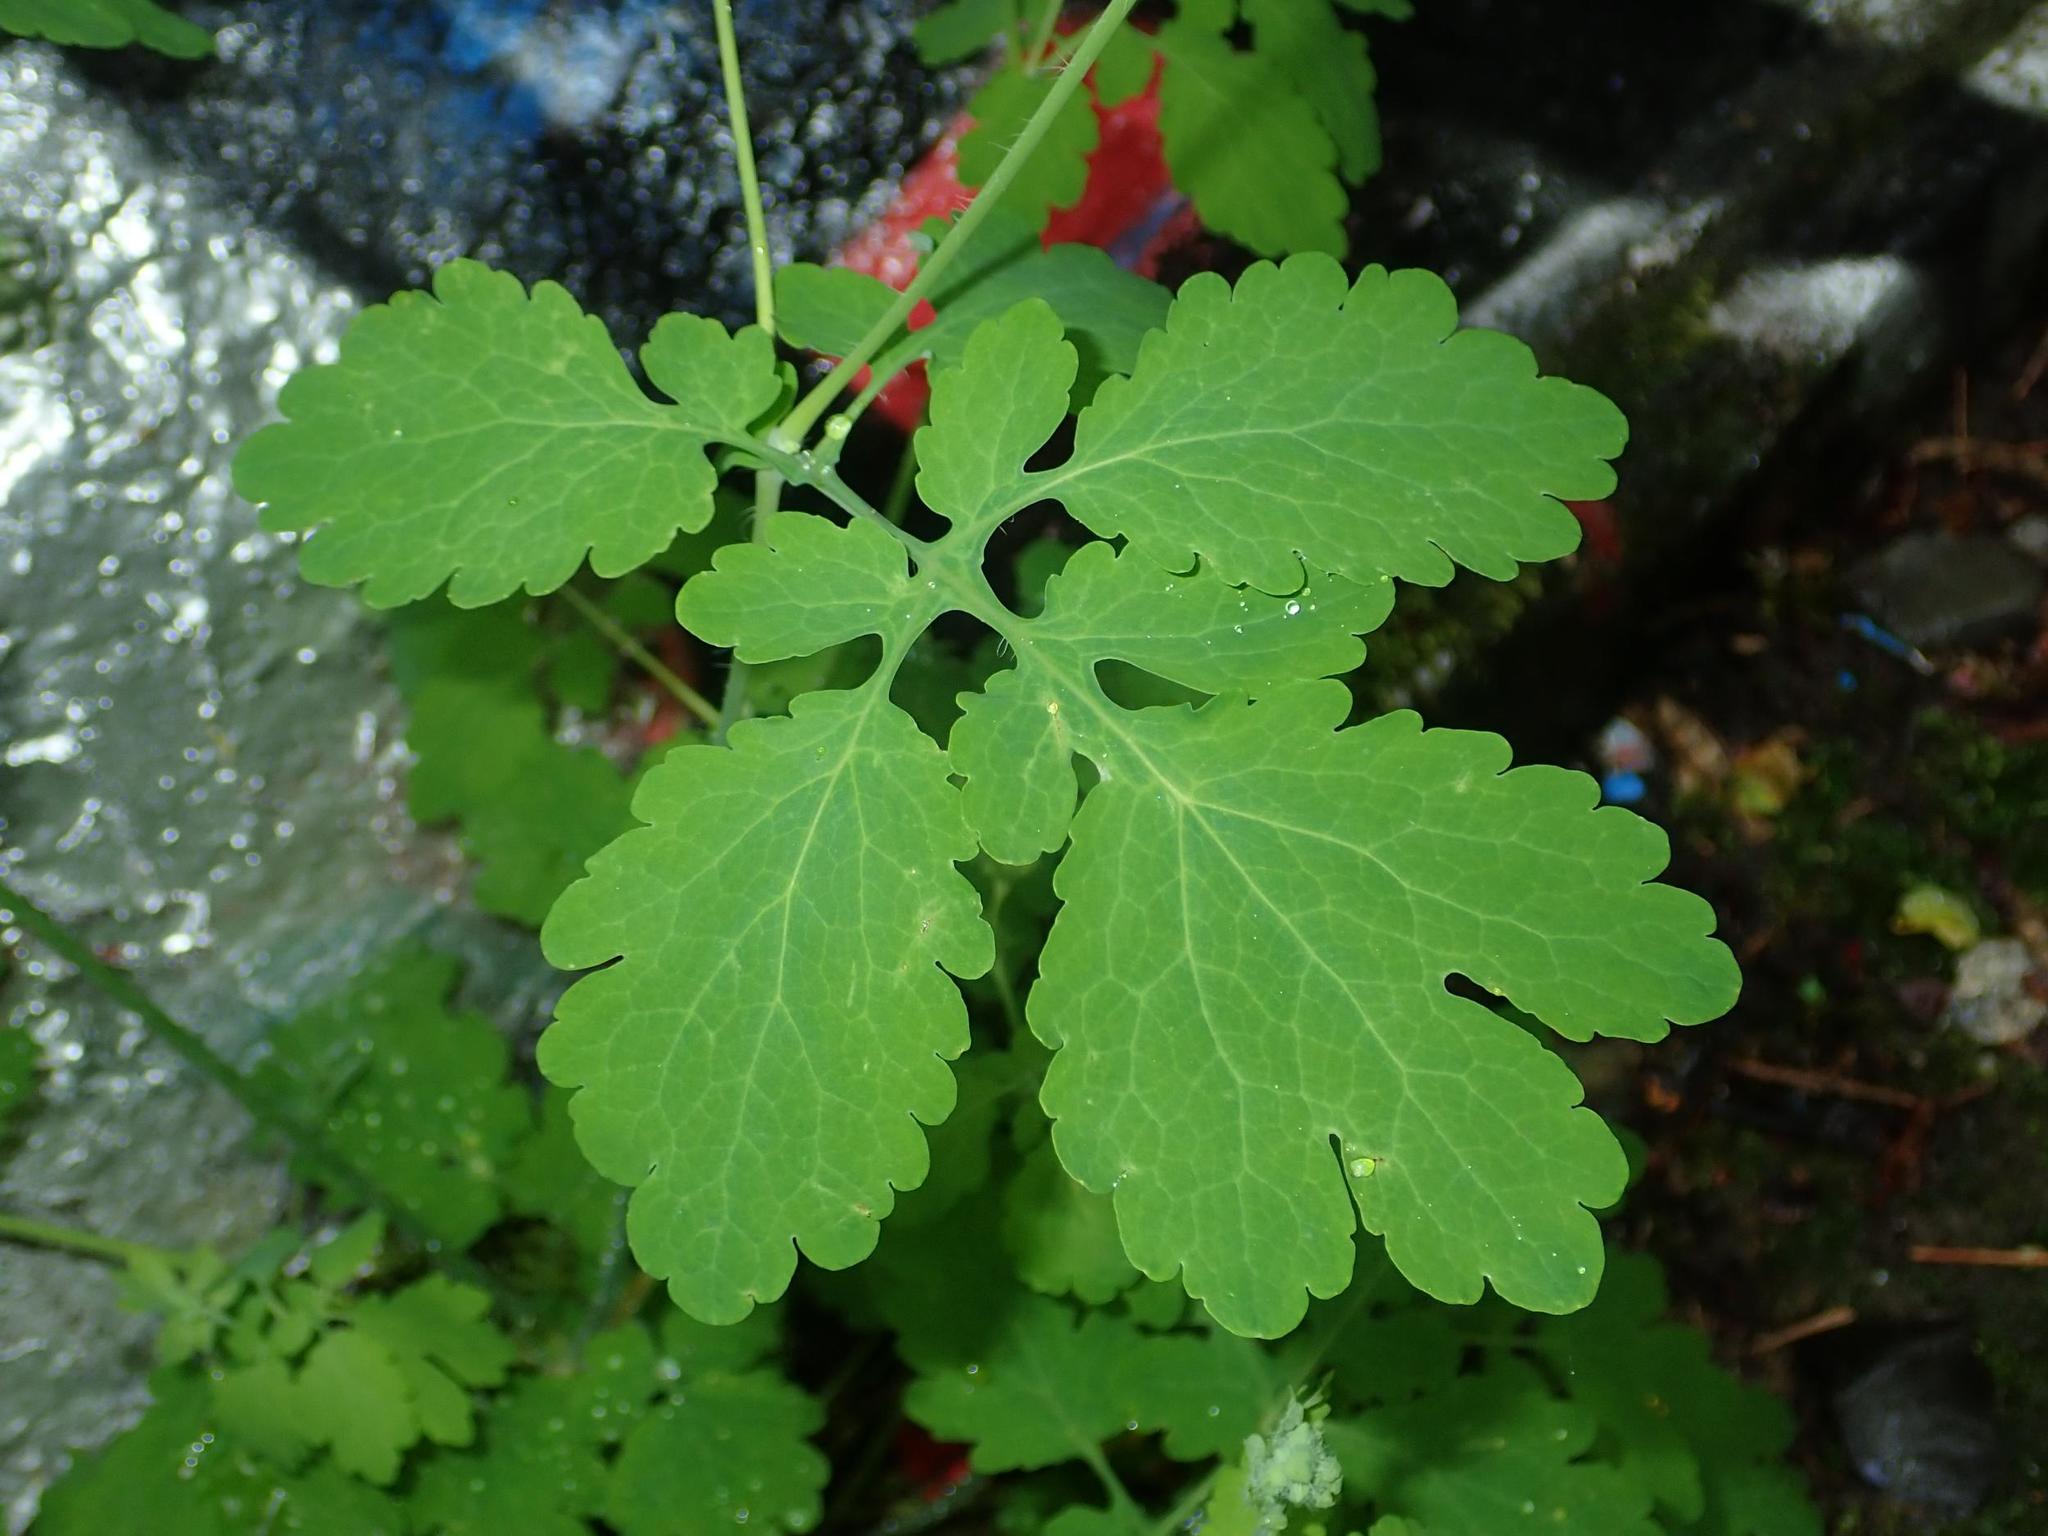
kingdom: Plantae
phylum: Tracheophyta
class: Magnoliopsida
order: Ranunculales
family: Papaveraceae
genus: Chelidonium
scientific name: Chelidonium majus
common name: Greater celandine
